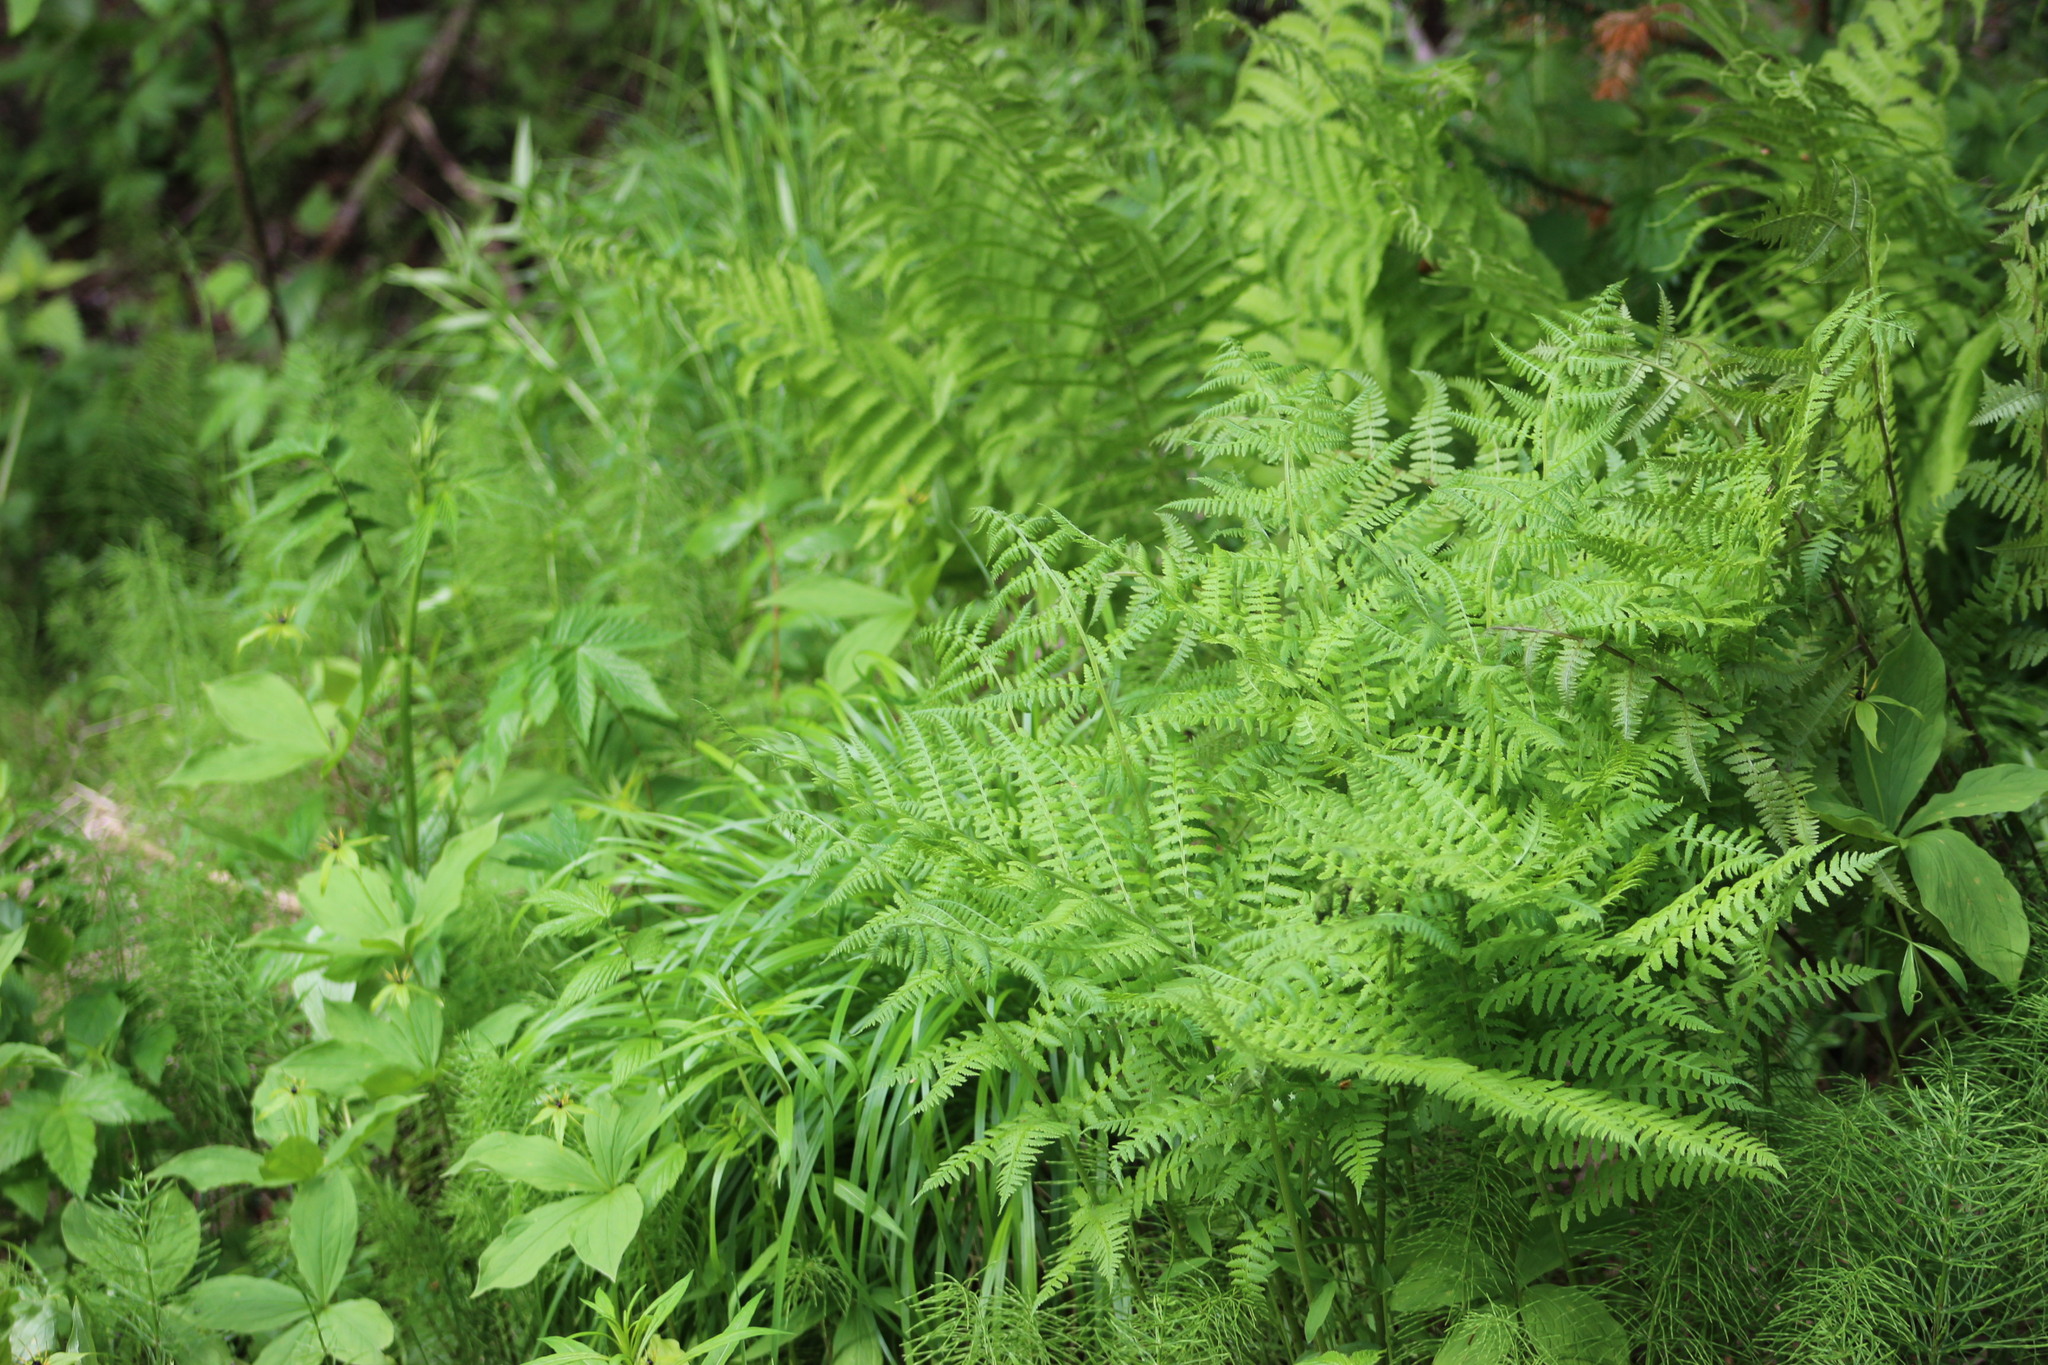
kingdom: Plantae
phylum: Tracheophyta
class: Polypodiopsida
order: Polypodiales
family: Athyriaceae
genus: Athyrium
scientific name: Athyrium filix-femina
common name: Lady fern
